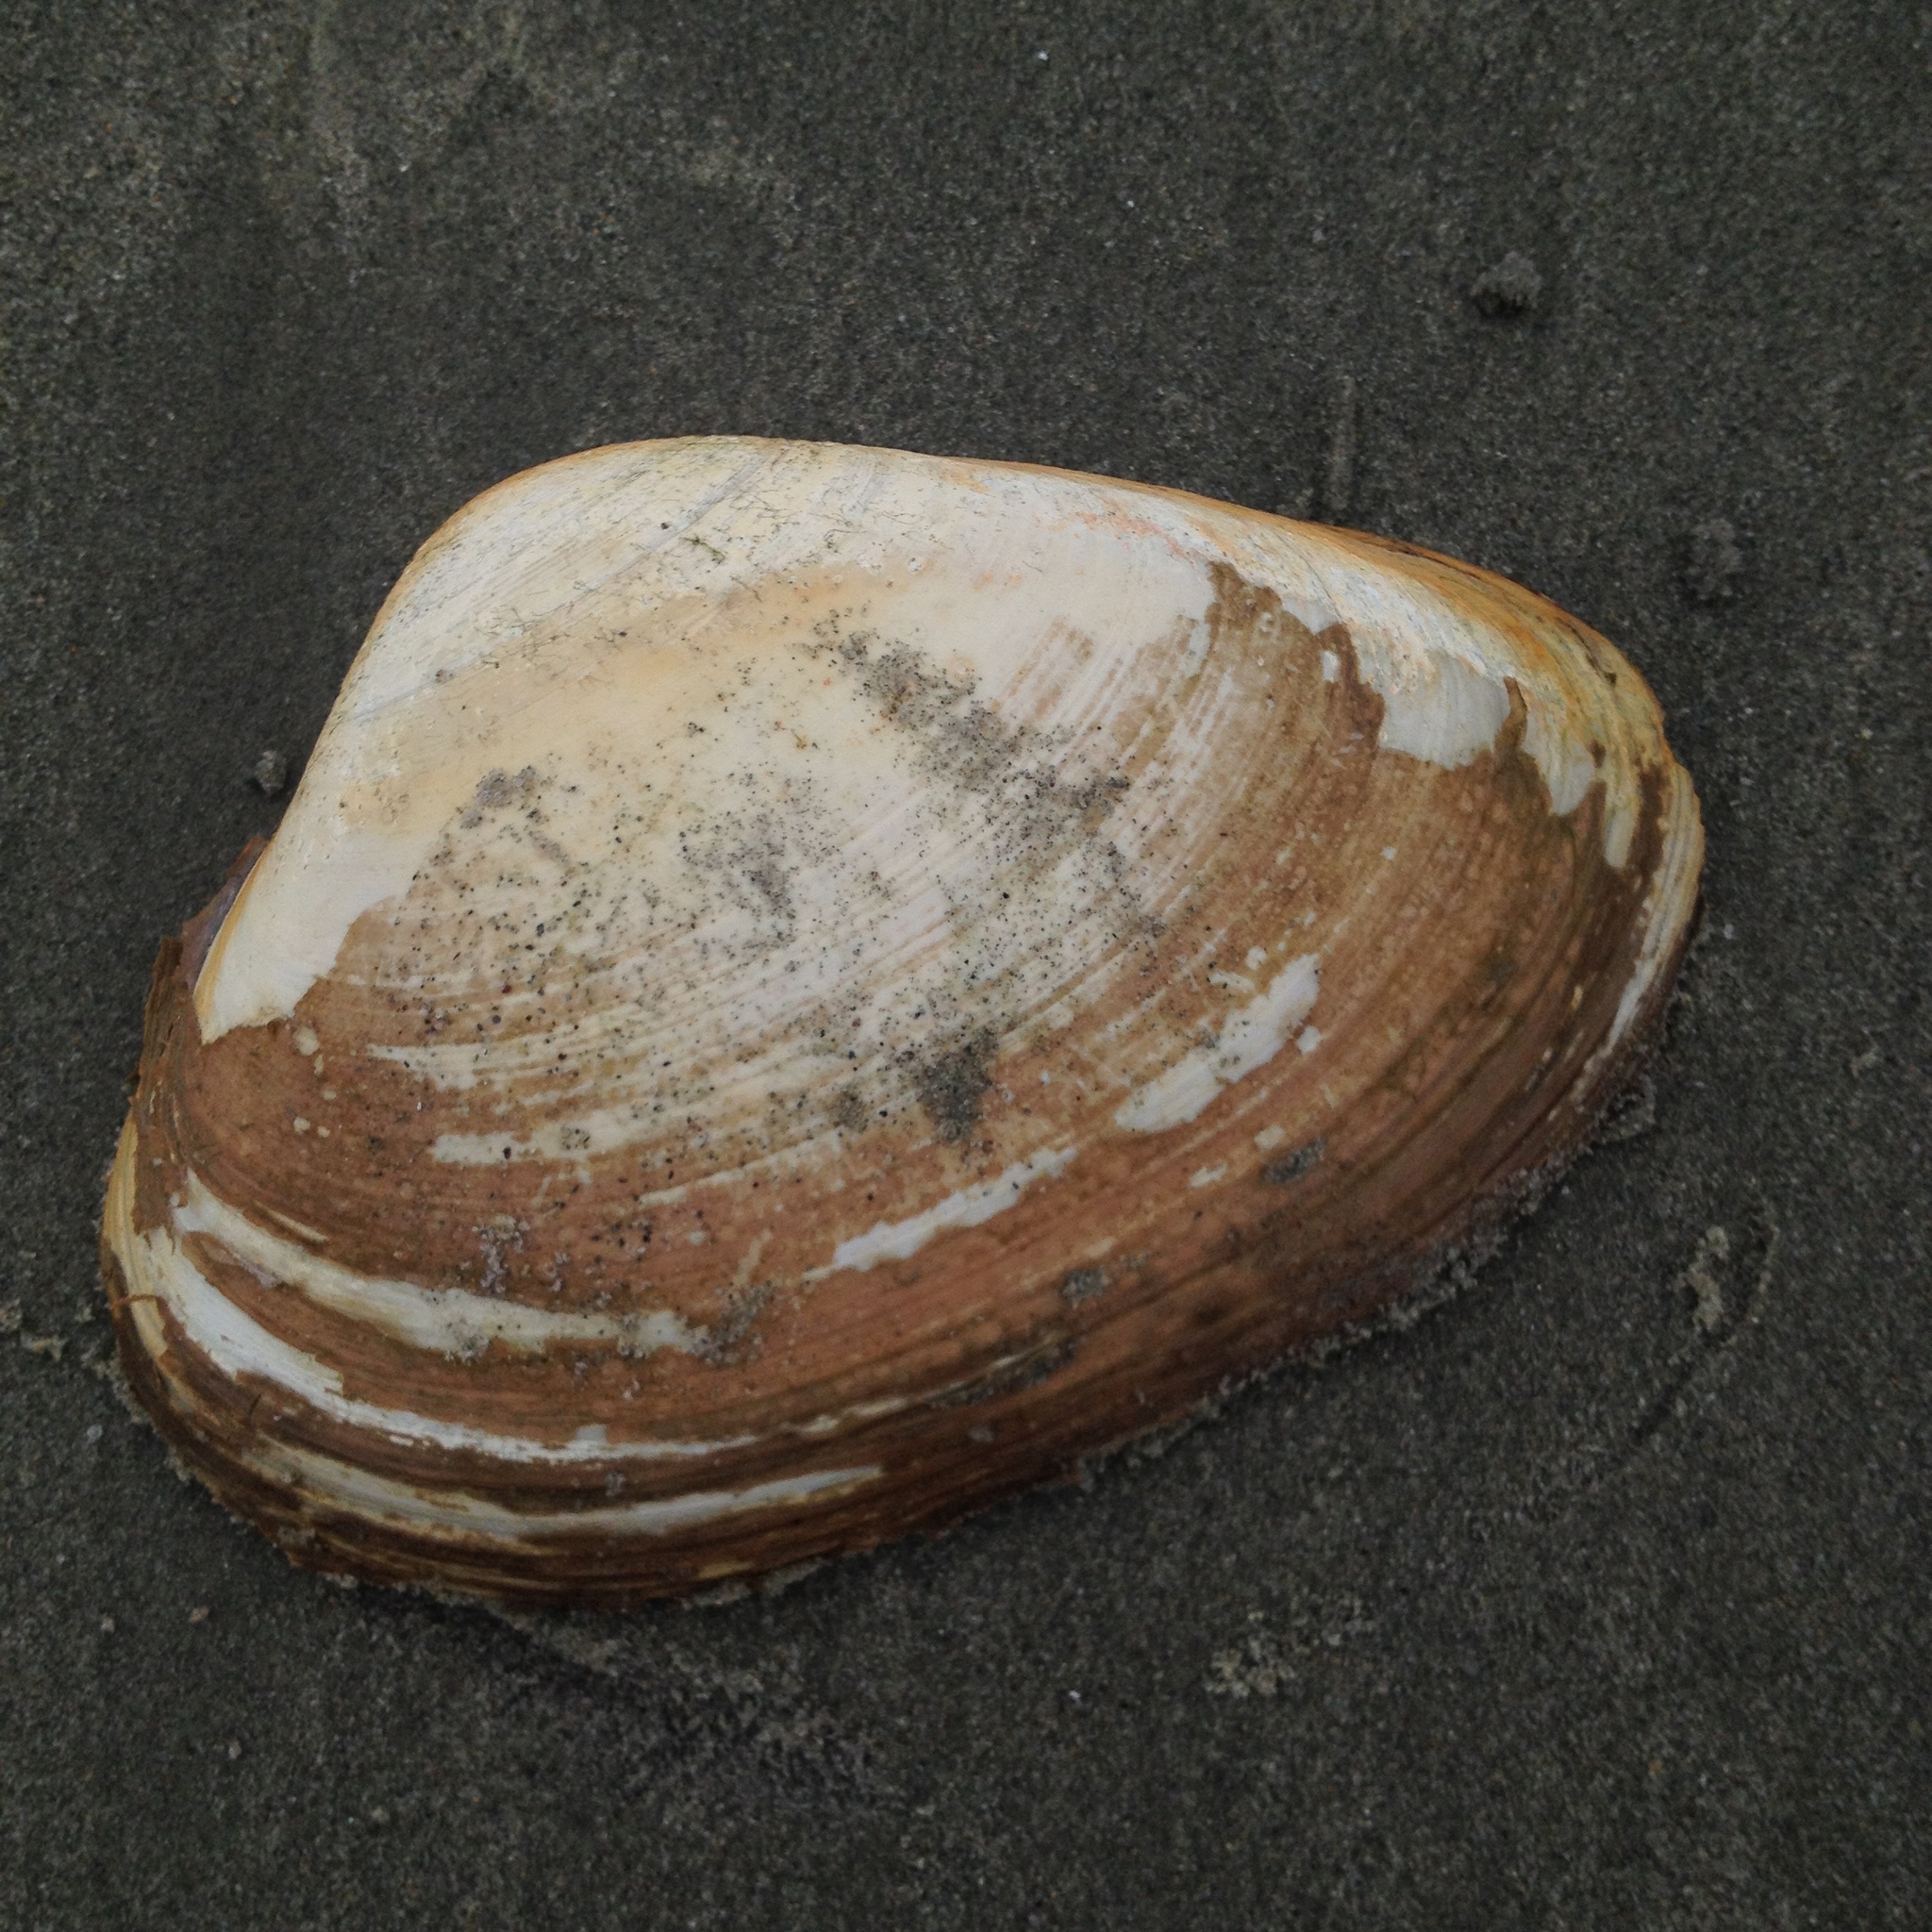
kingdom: Animalia
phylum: Mollusca
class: Bivalvia
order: Venerida
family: Mactridae
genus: Spisula
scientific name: Spisula solidissima
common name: Atlantic surf clam
